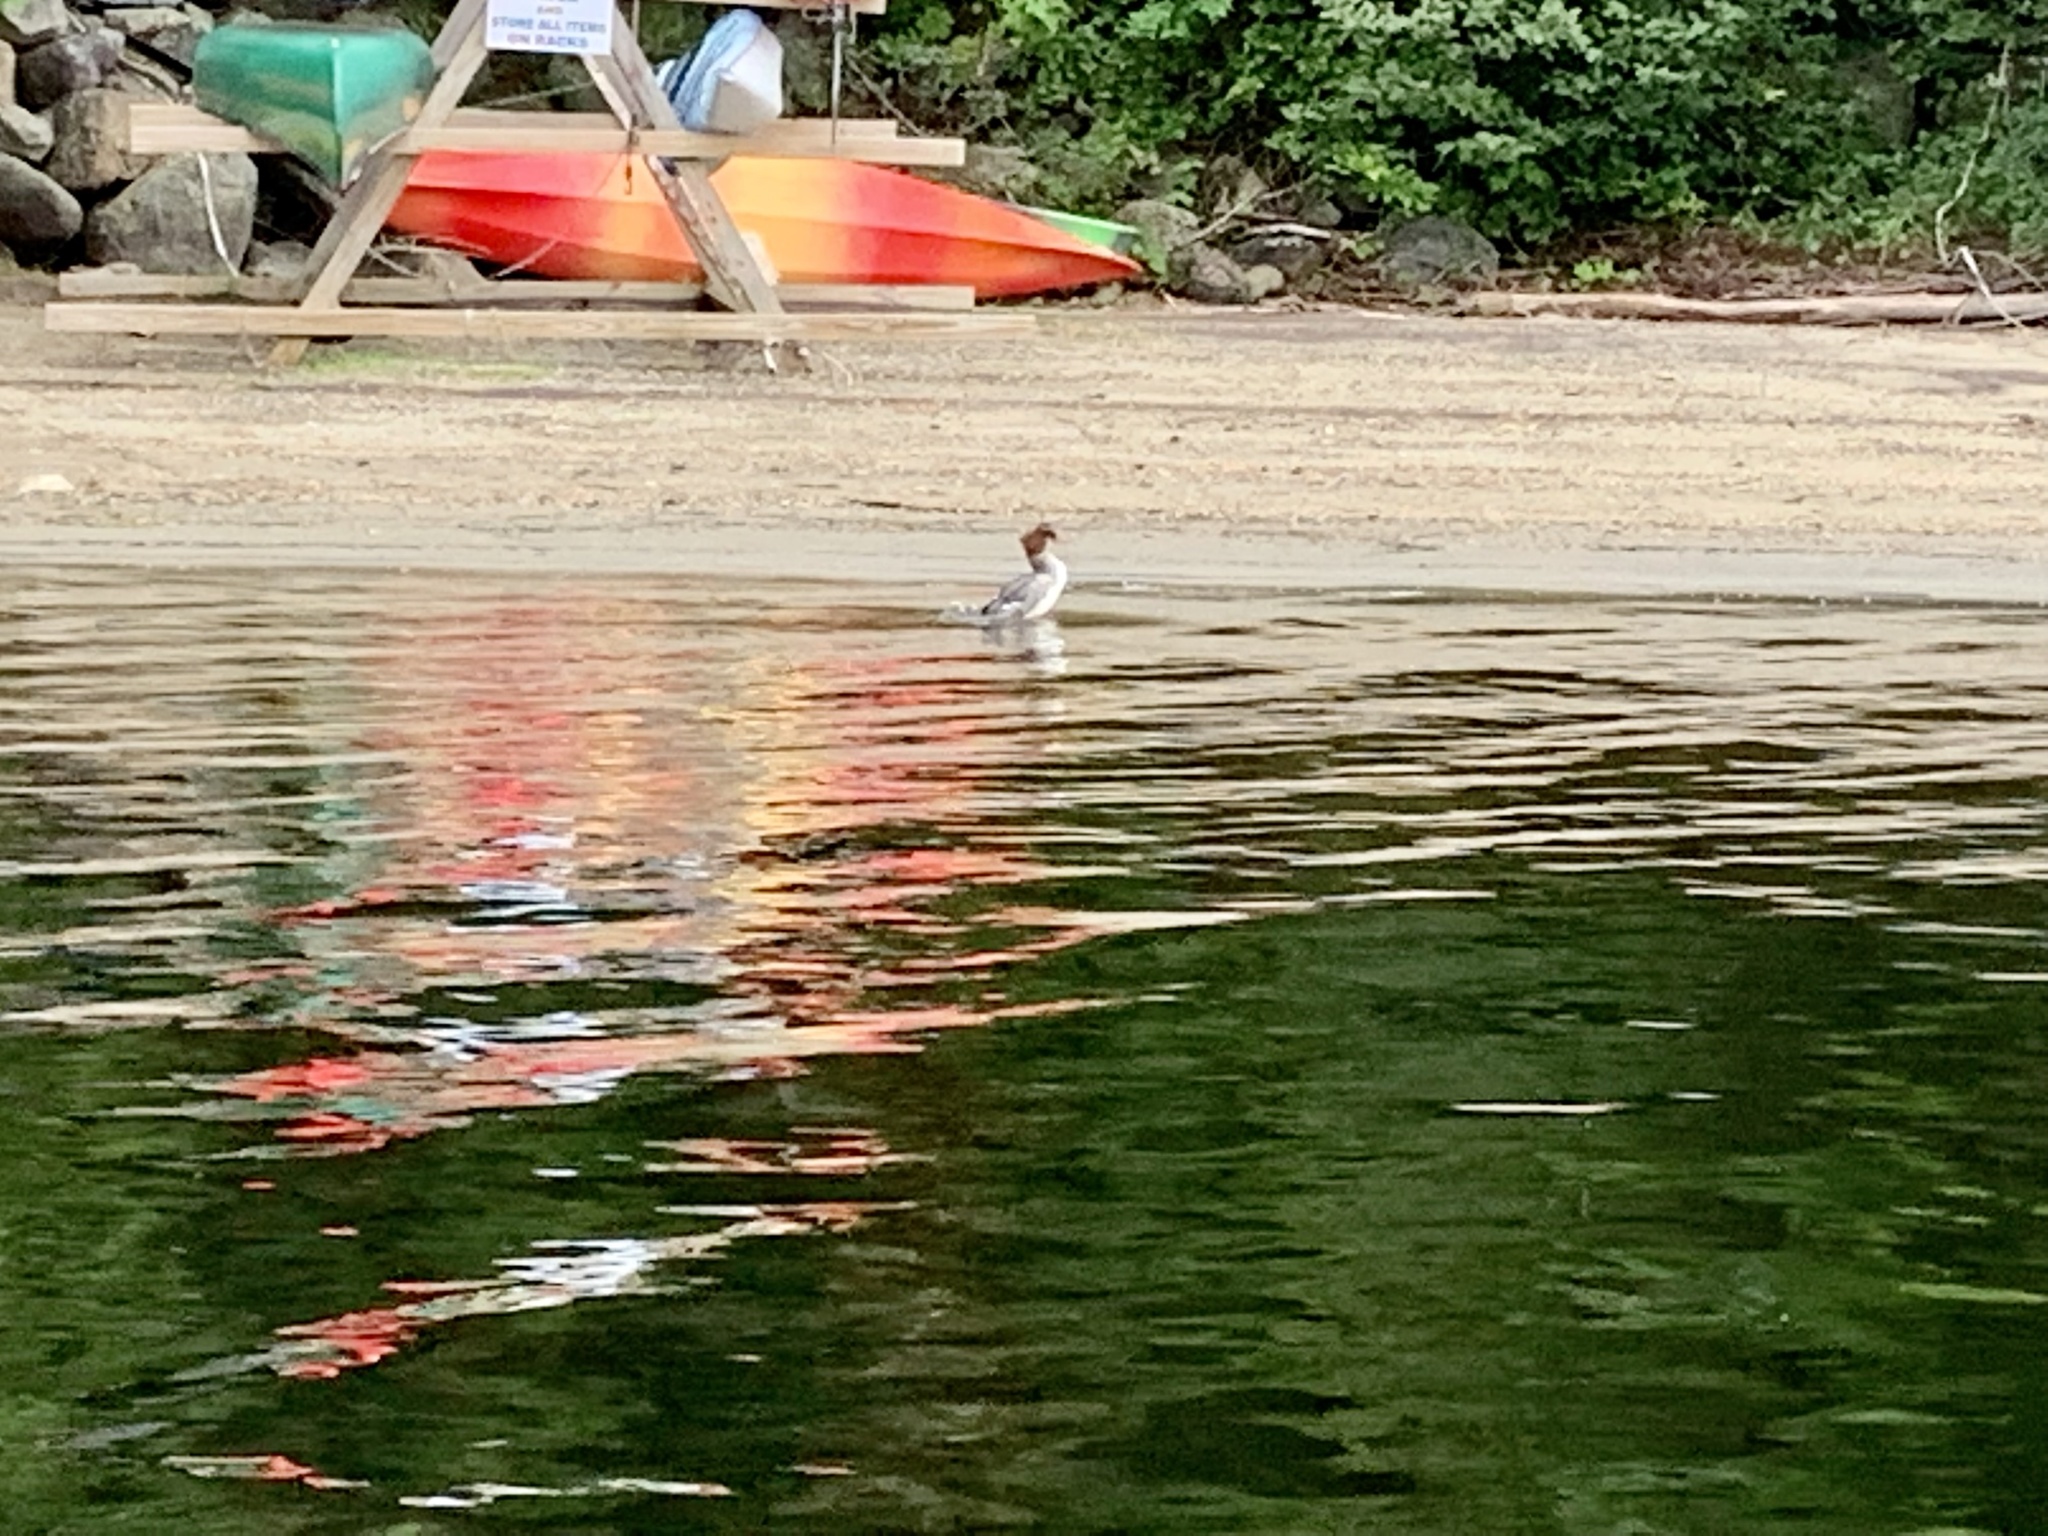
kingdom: Animalia
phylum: Chordata
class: Aves
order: Anseriformes
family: Anatidae
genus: Mergus
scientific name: Mergus merganser
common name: Common merganser
